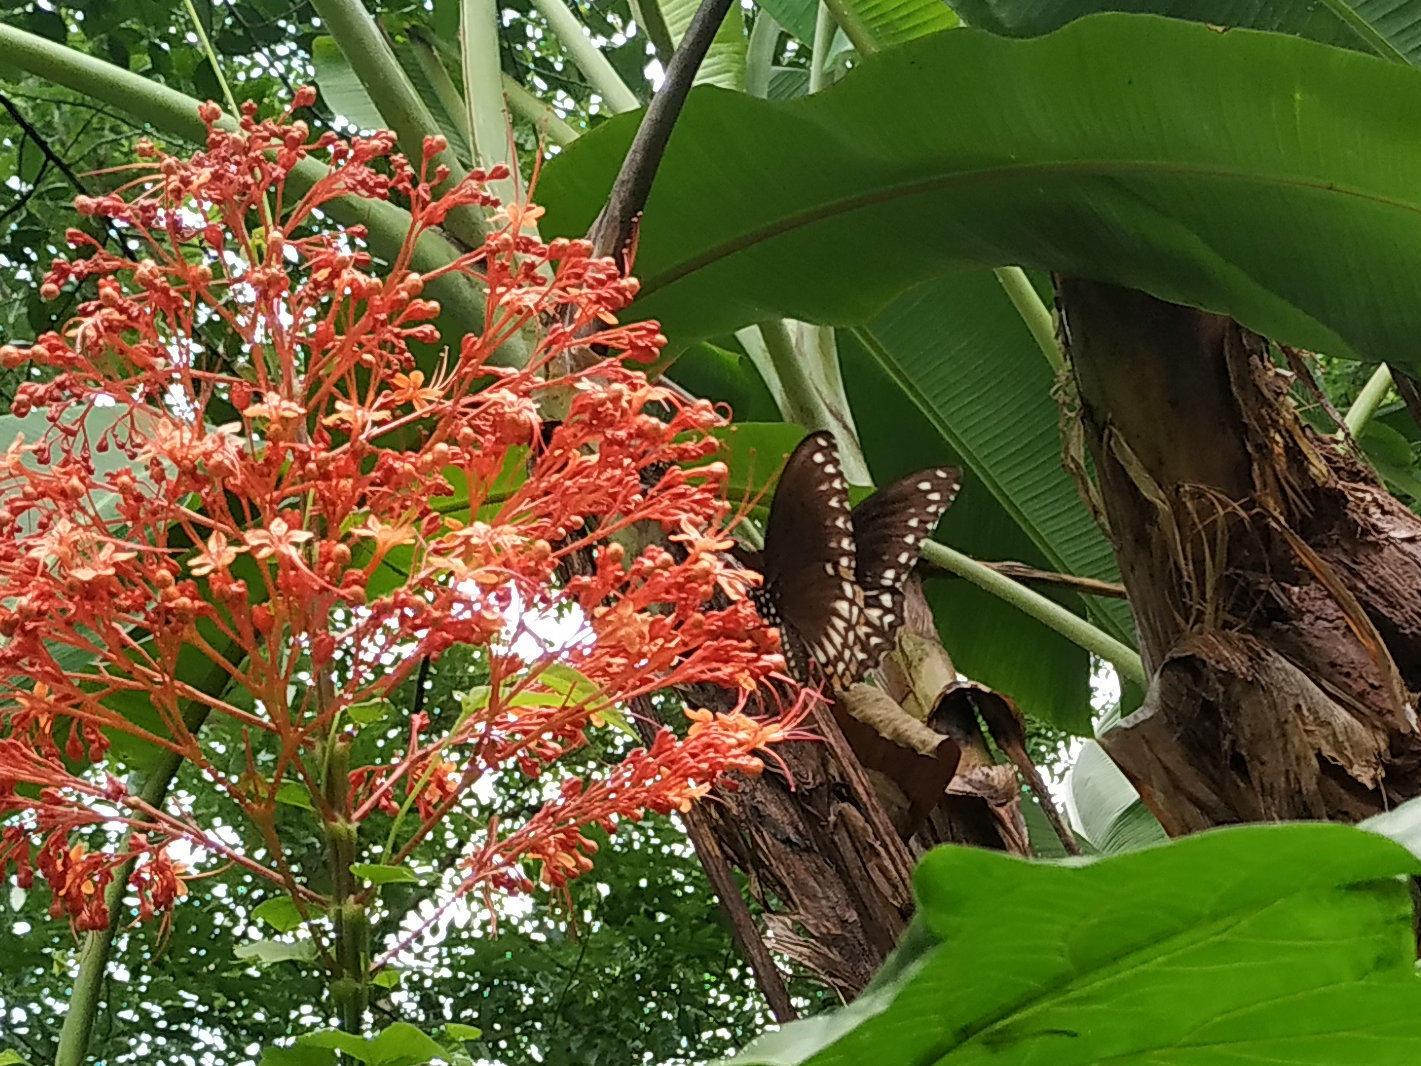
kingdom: Animalia
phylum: Arthropoda
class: Insecta
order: Lepidoptera
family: Papilionidae
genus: Chilasa
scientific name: Chilasa clytia
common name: Common mime
